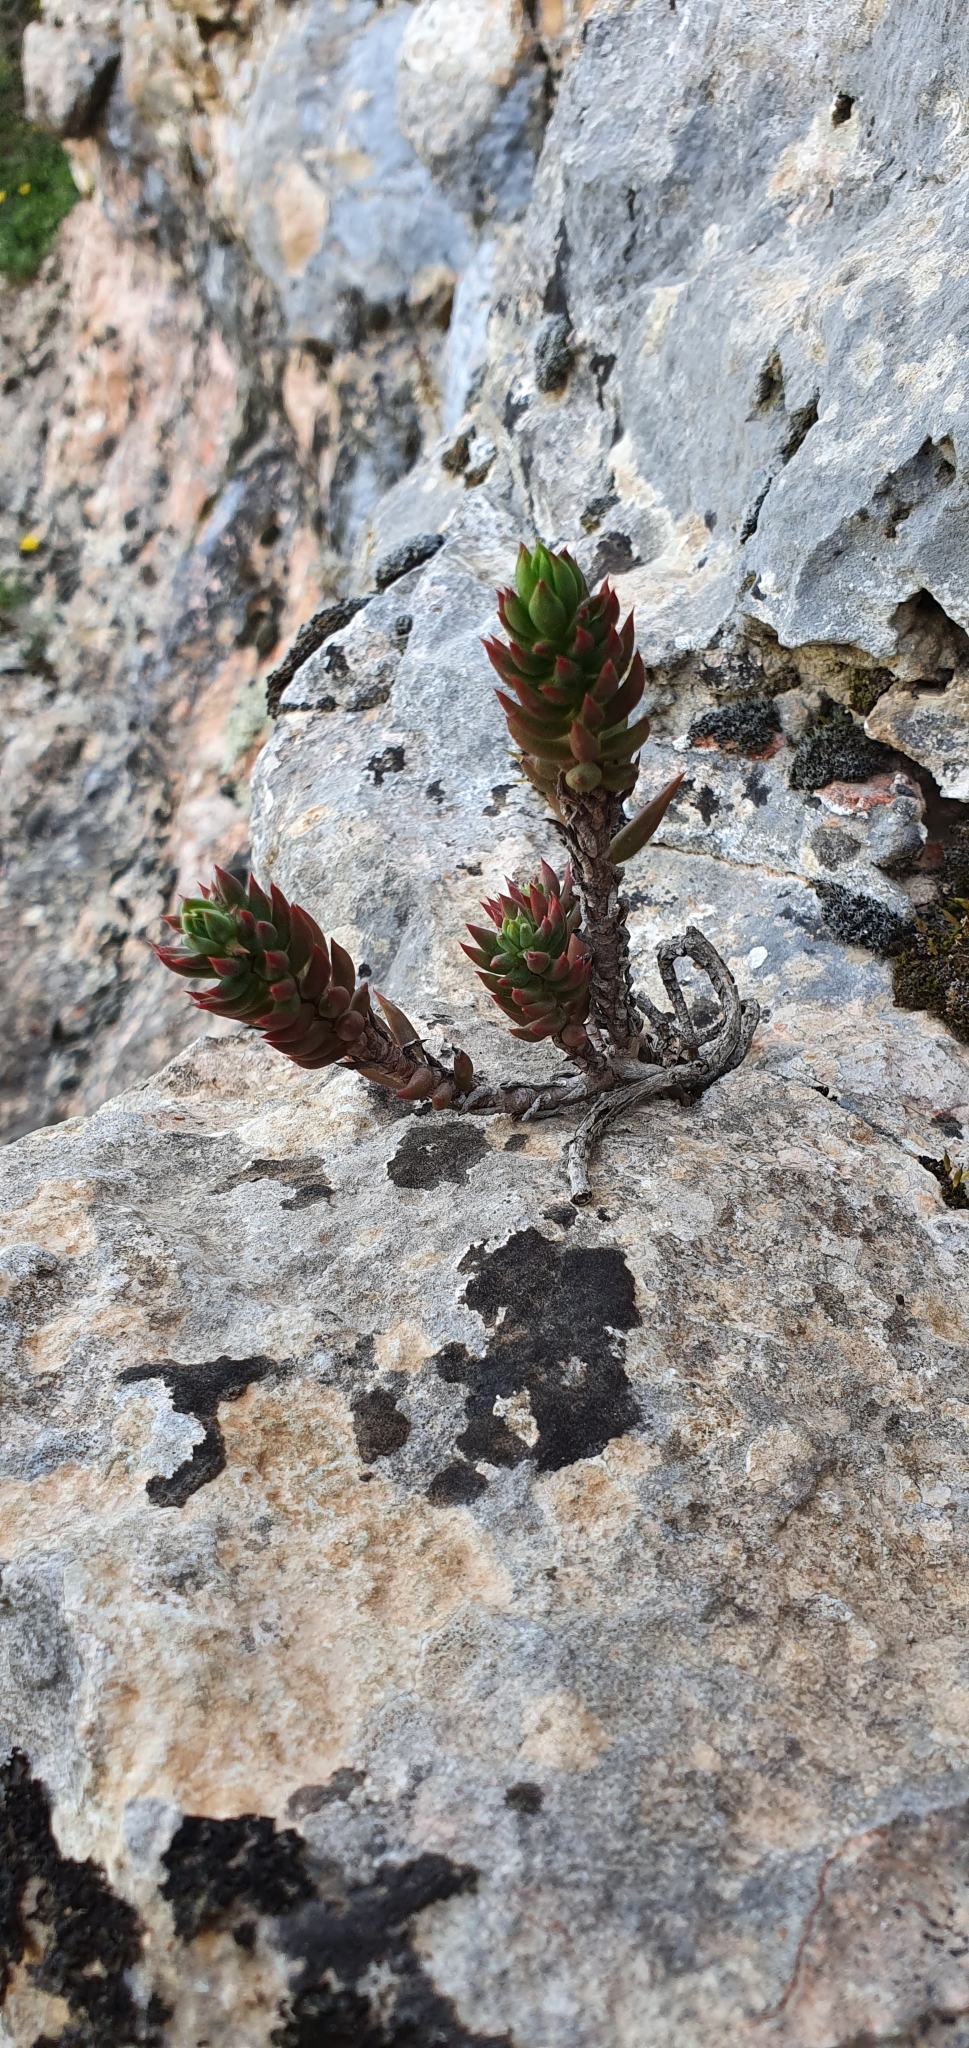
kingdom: Plantae
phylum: Tracheophyta
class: Magnoliopsida
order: Saxifragales
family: Crassulaceae
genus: Petrosedum
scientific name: Petrosedum sediforme
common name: Pale stonecrop
